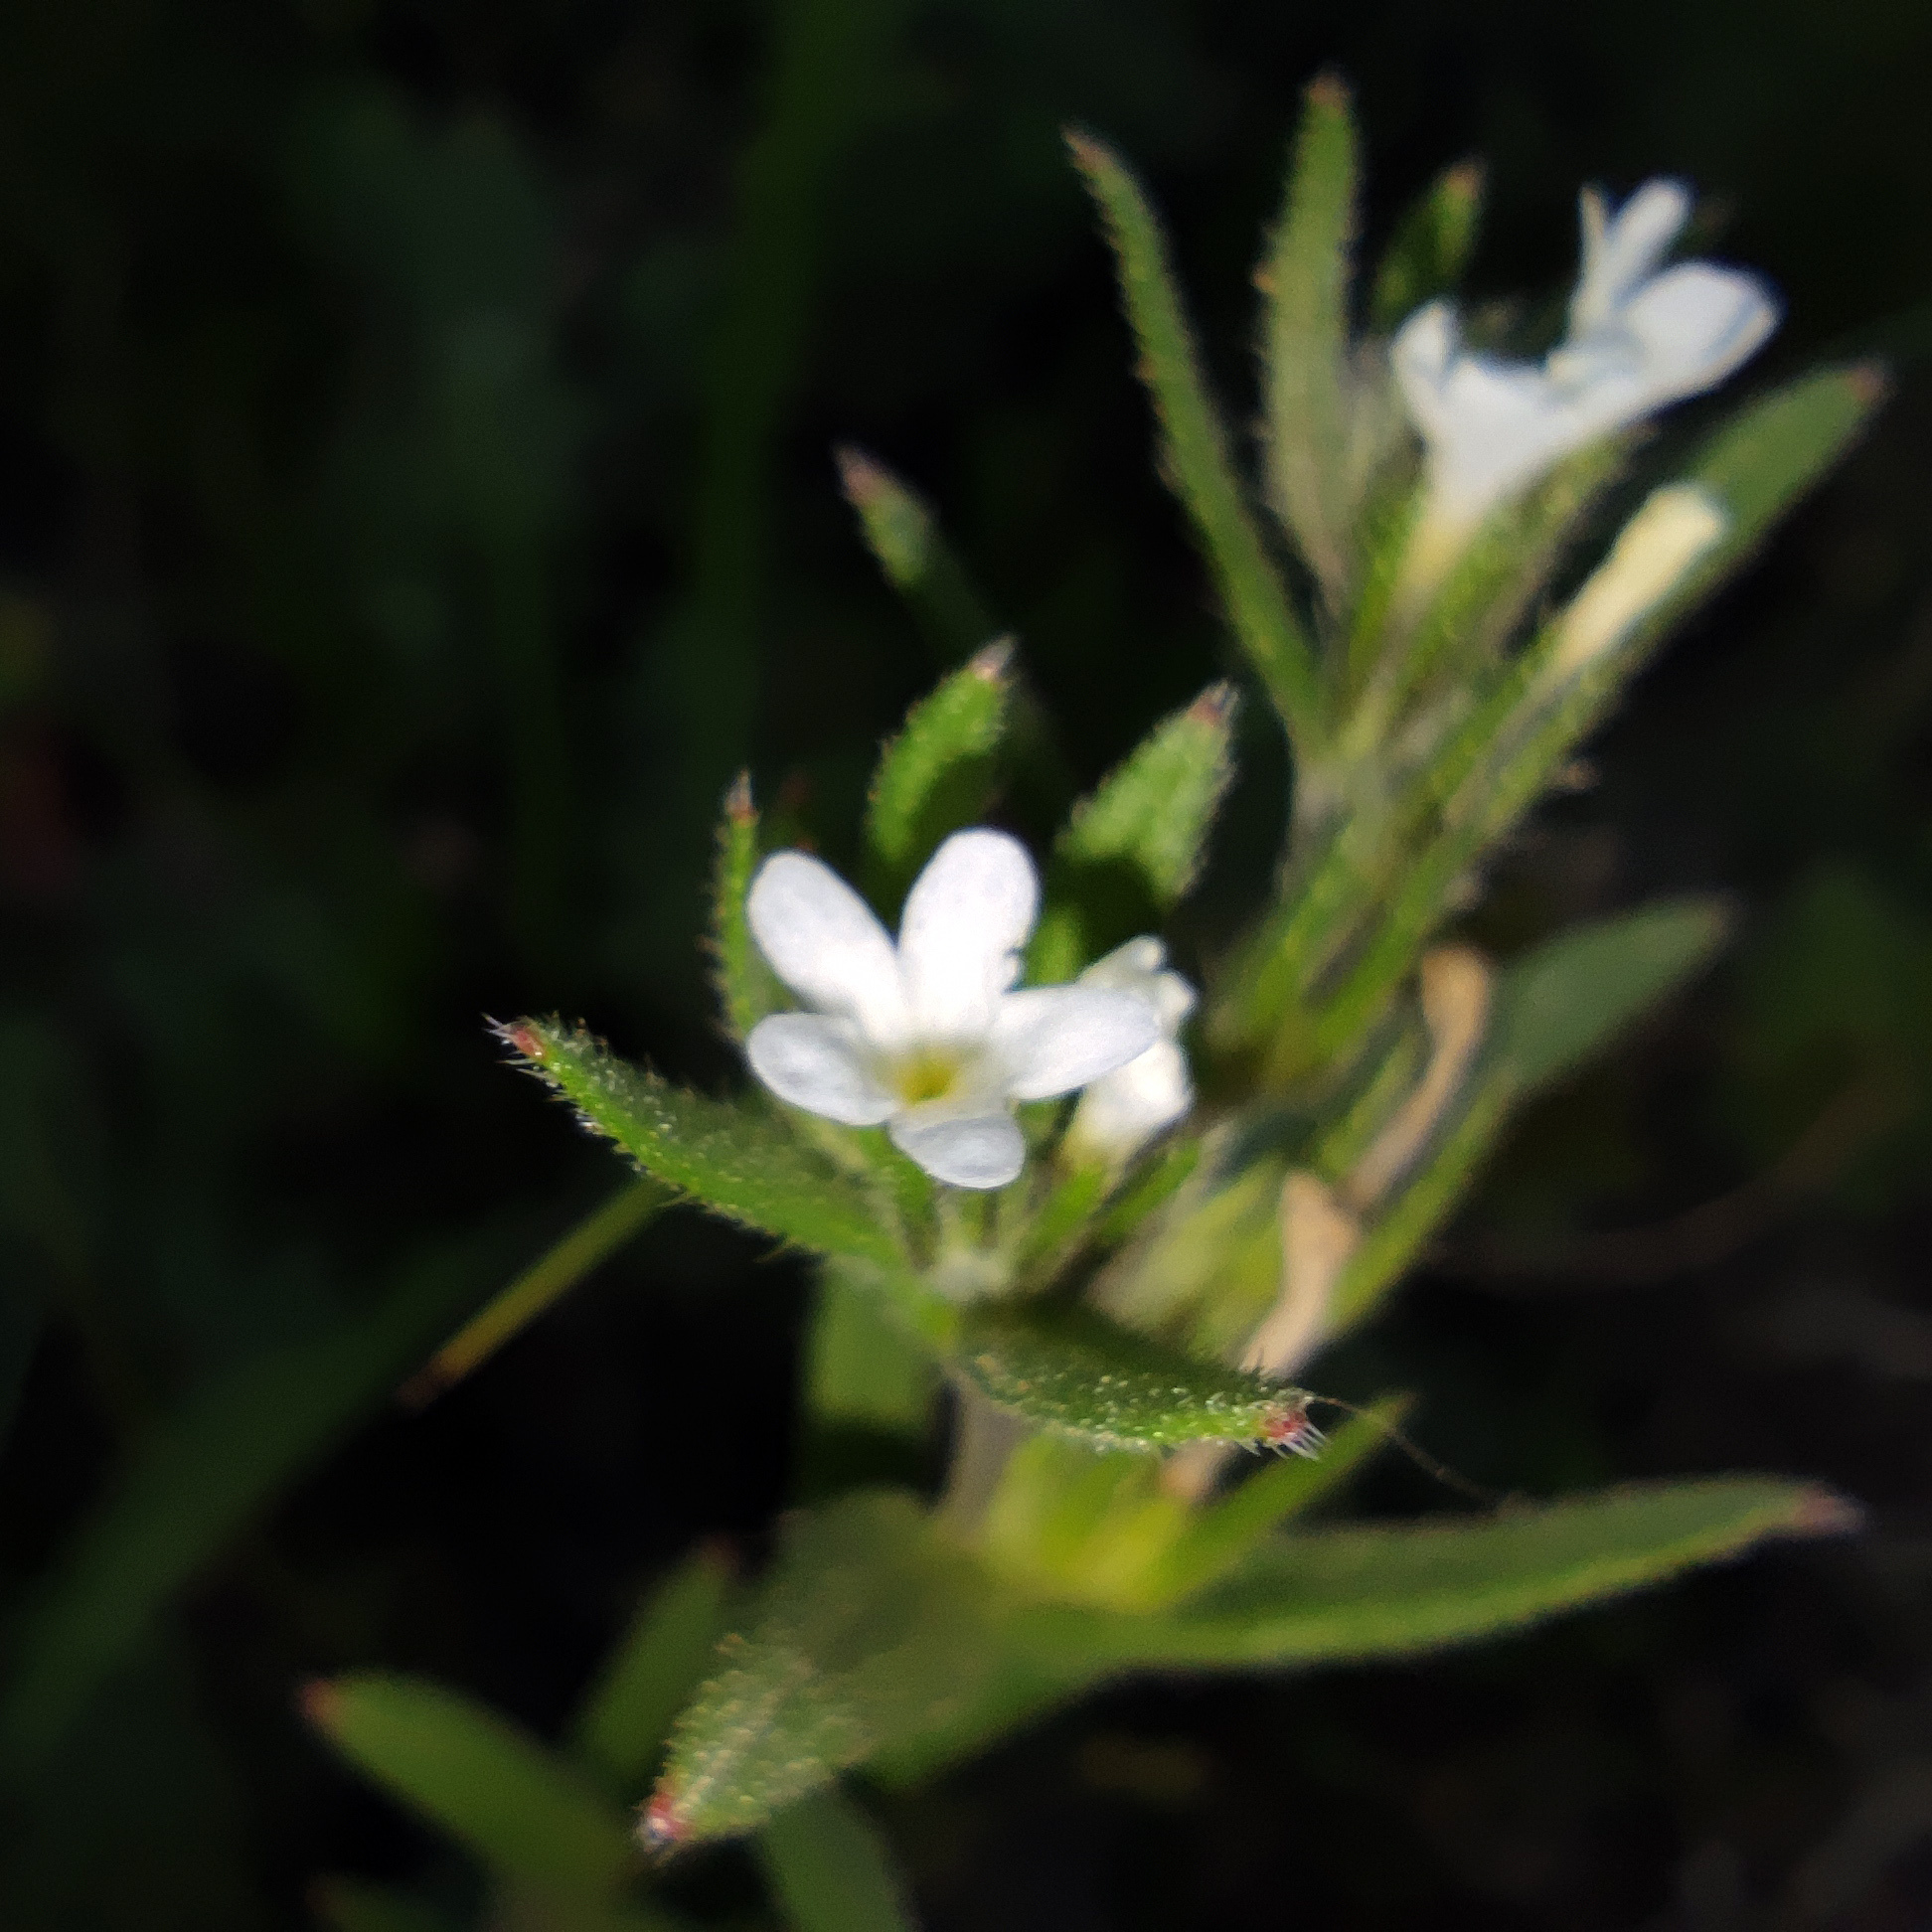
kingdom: Plantae
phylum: Tracheophyta
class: Magnoliopsida
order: Boraginales
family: Boraginaceae
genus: Buglossoides
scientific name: Buglossoides arvensis
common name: Corn gromwell
